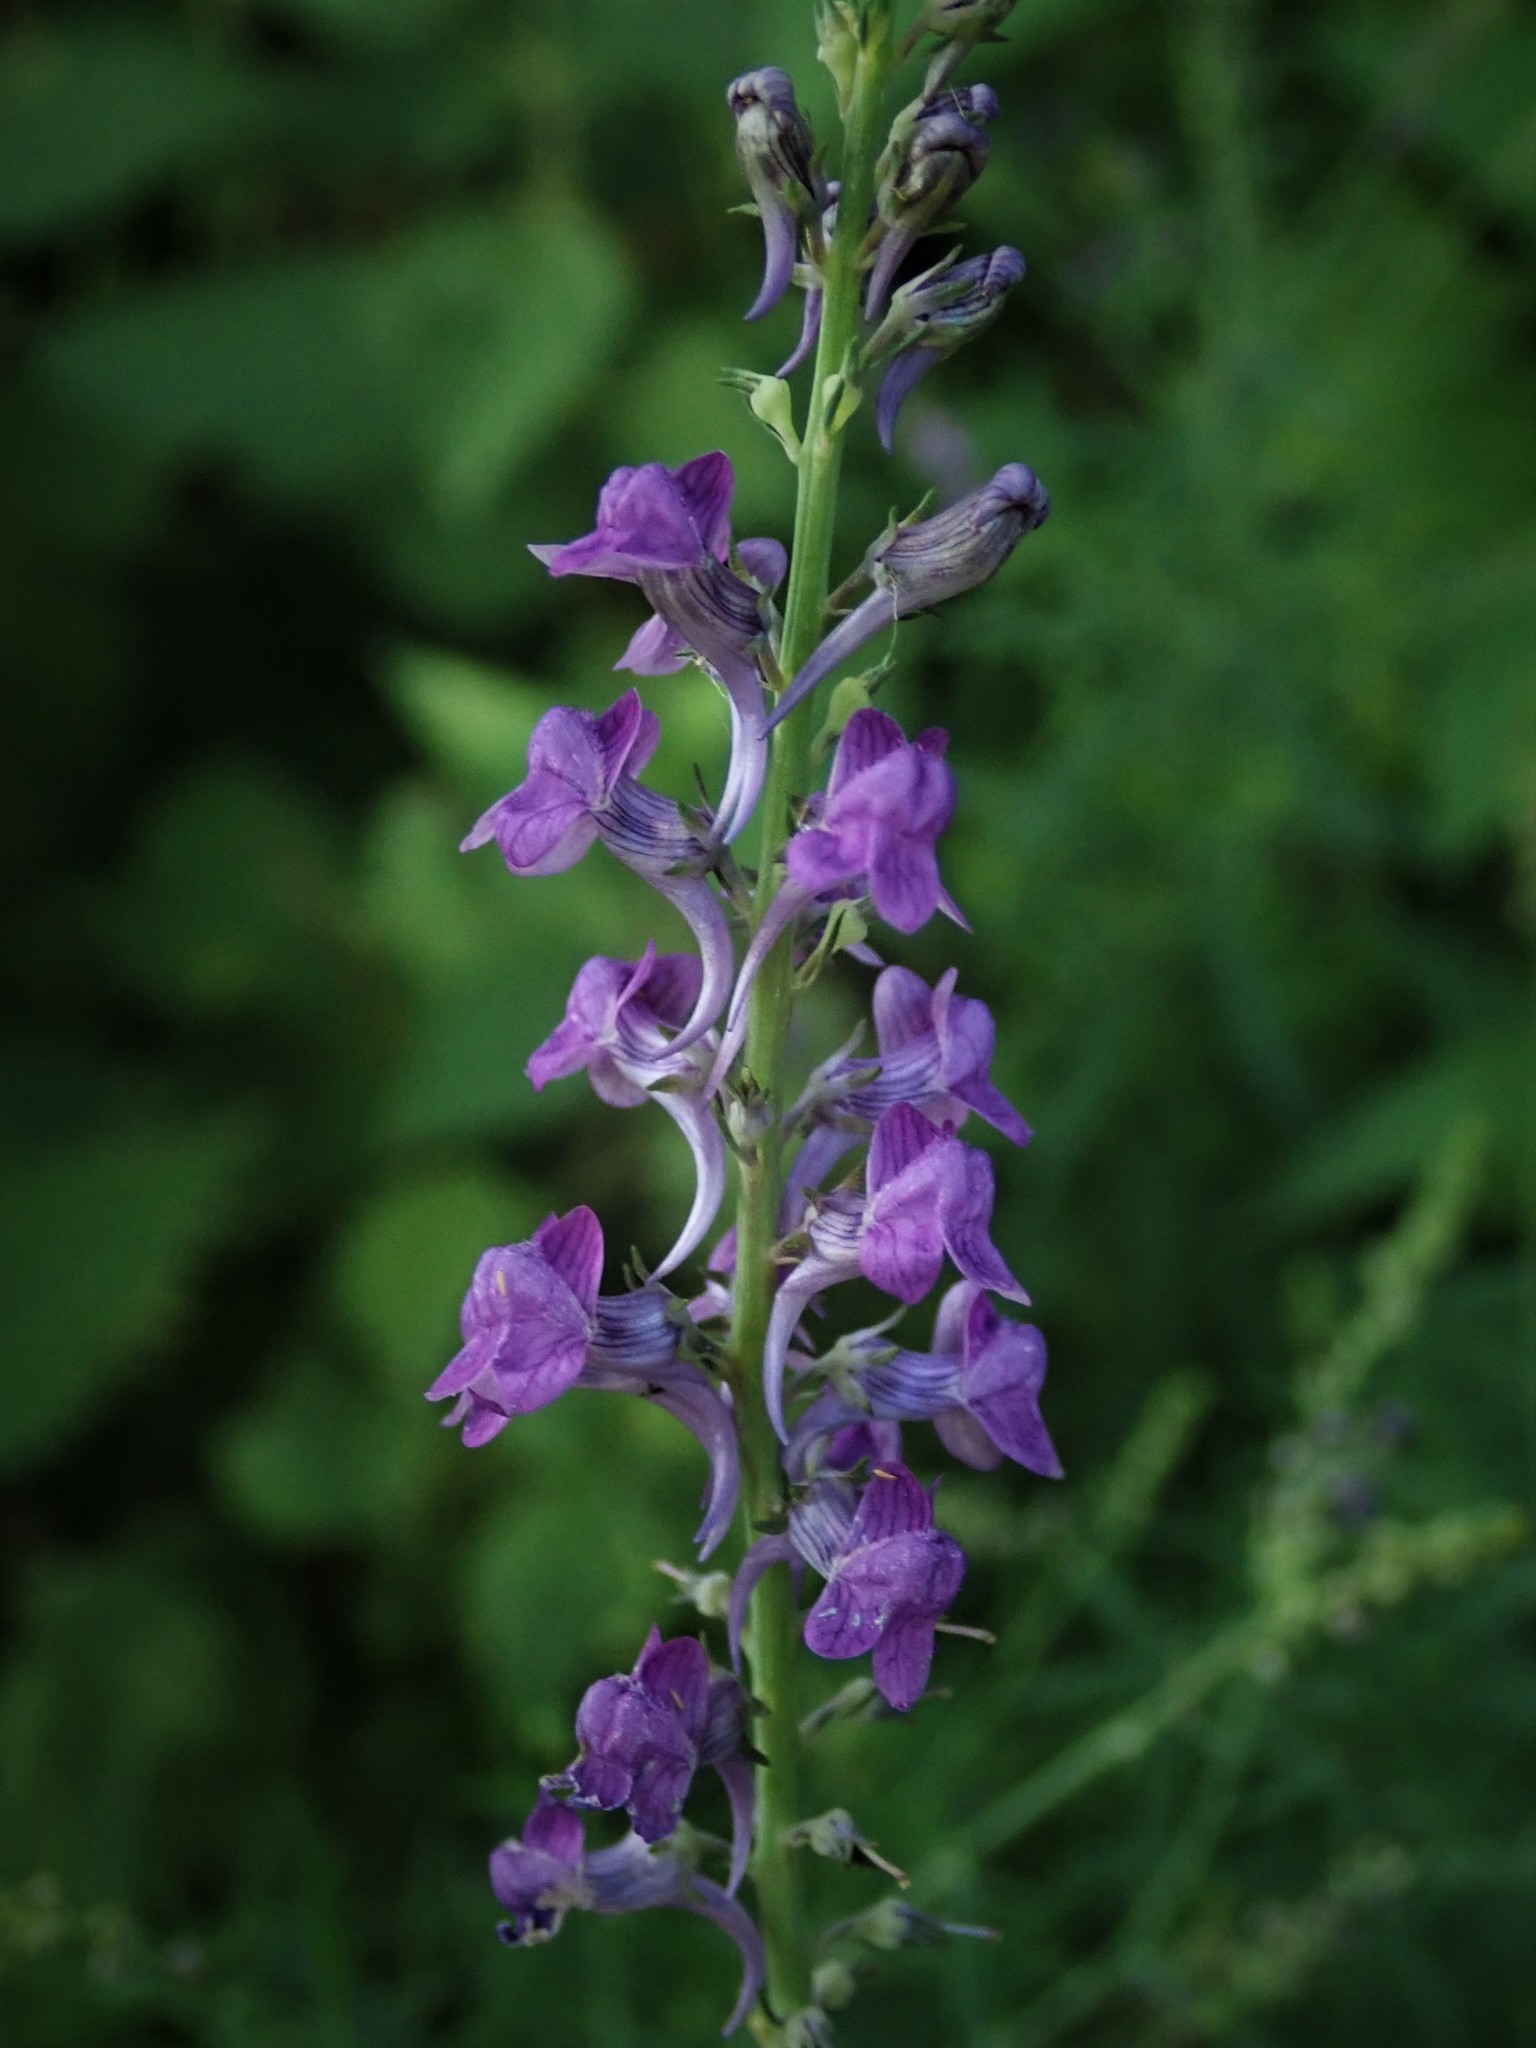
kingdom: Plantae
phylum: Tracheophyta
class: Magnoliopsida
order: Lamiales
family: Plantaginaceae
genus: Linaria
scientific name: Linaria purpurea
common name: Purple toadflax
